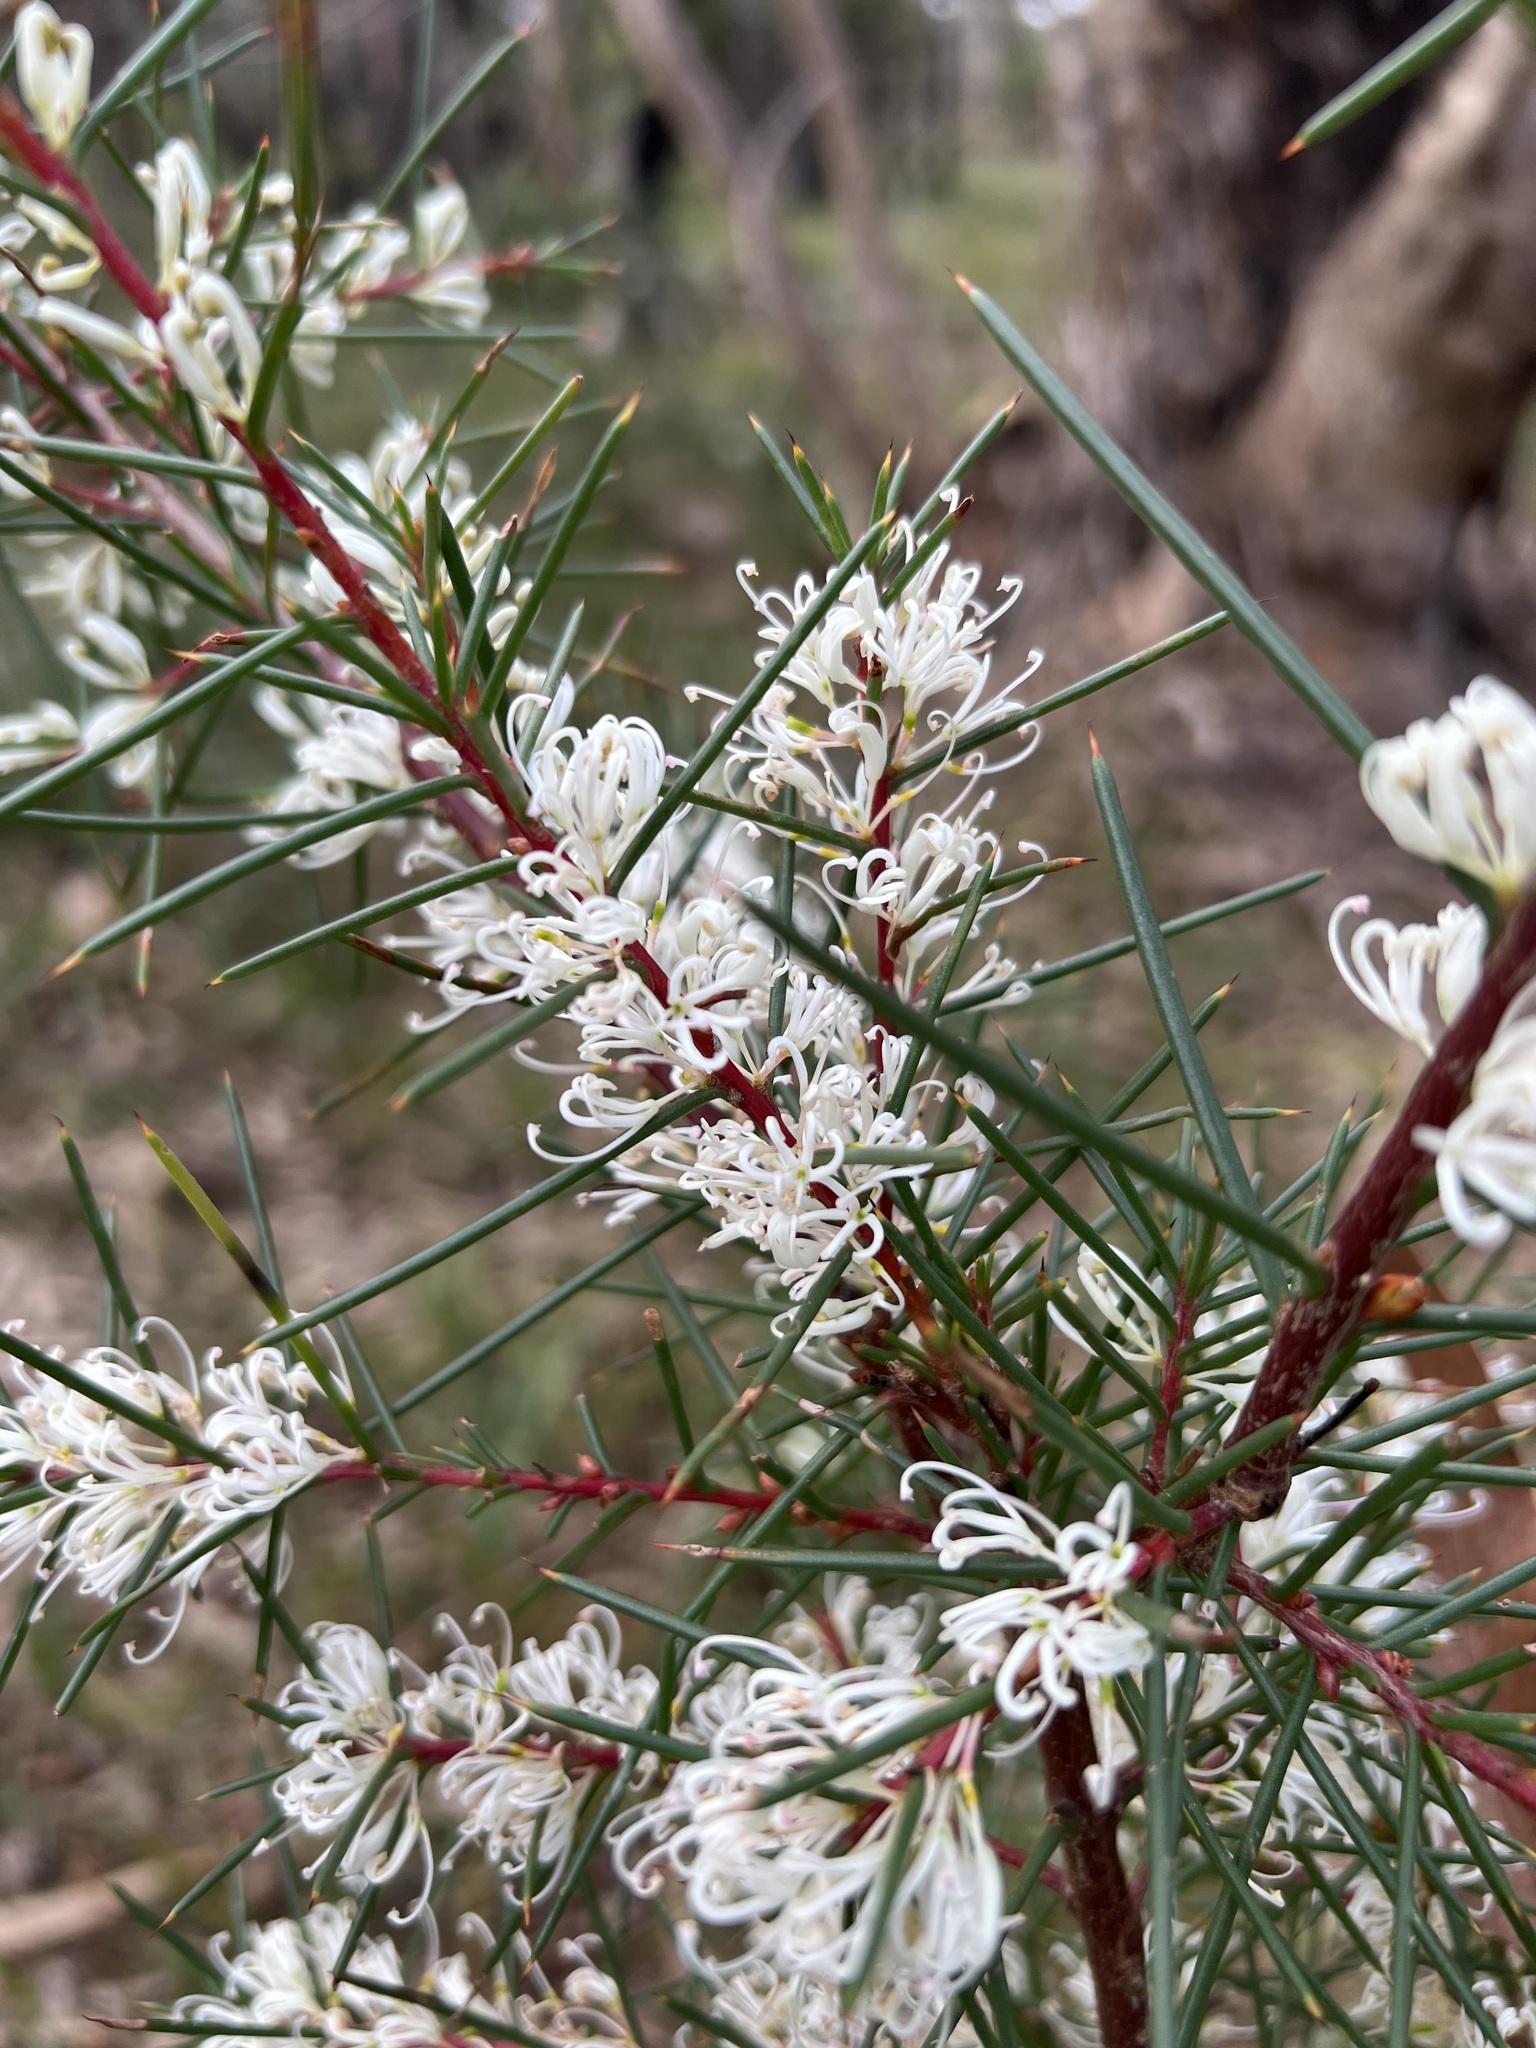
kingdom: Plantae
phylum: Tracheophyta
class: Magnoliopsida
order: Proteales
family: Proteaceae
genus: Hakea
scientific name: Hakea decurrens
